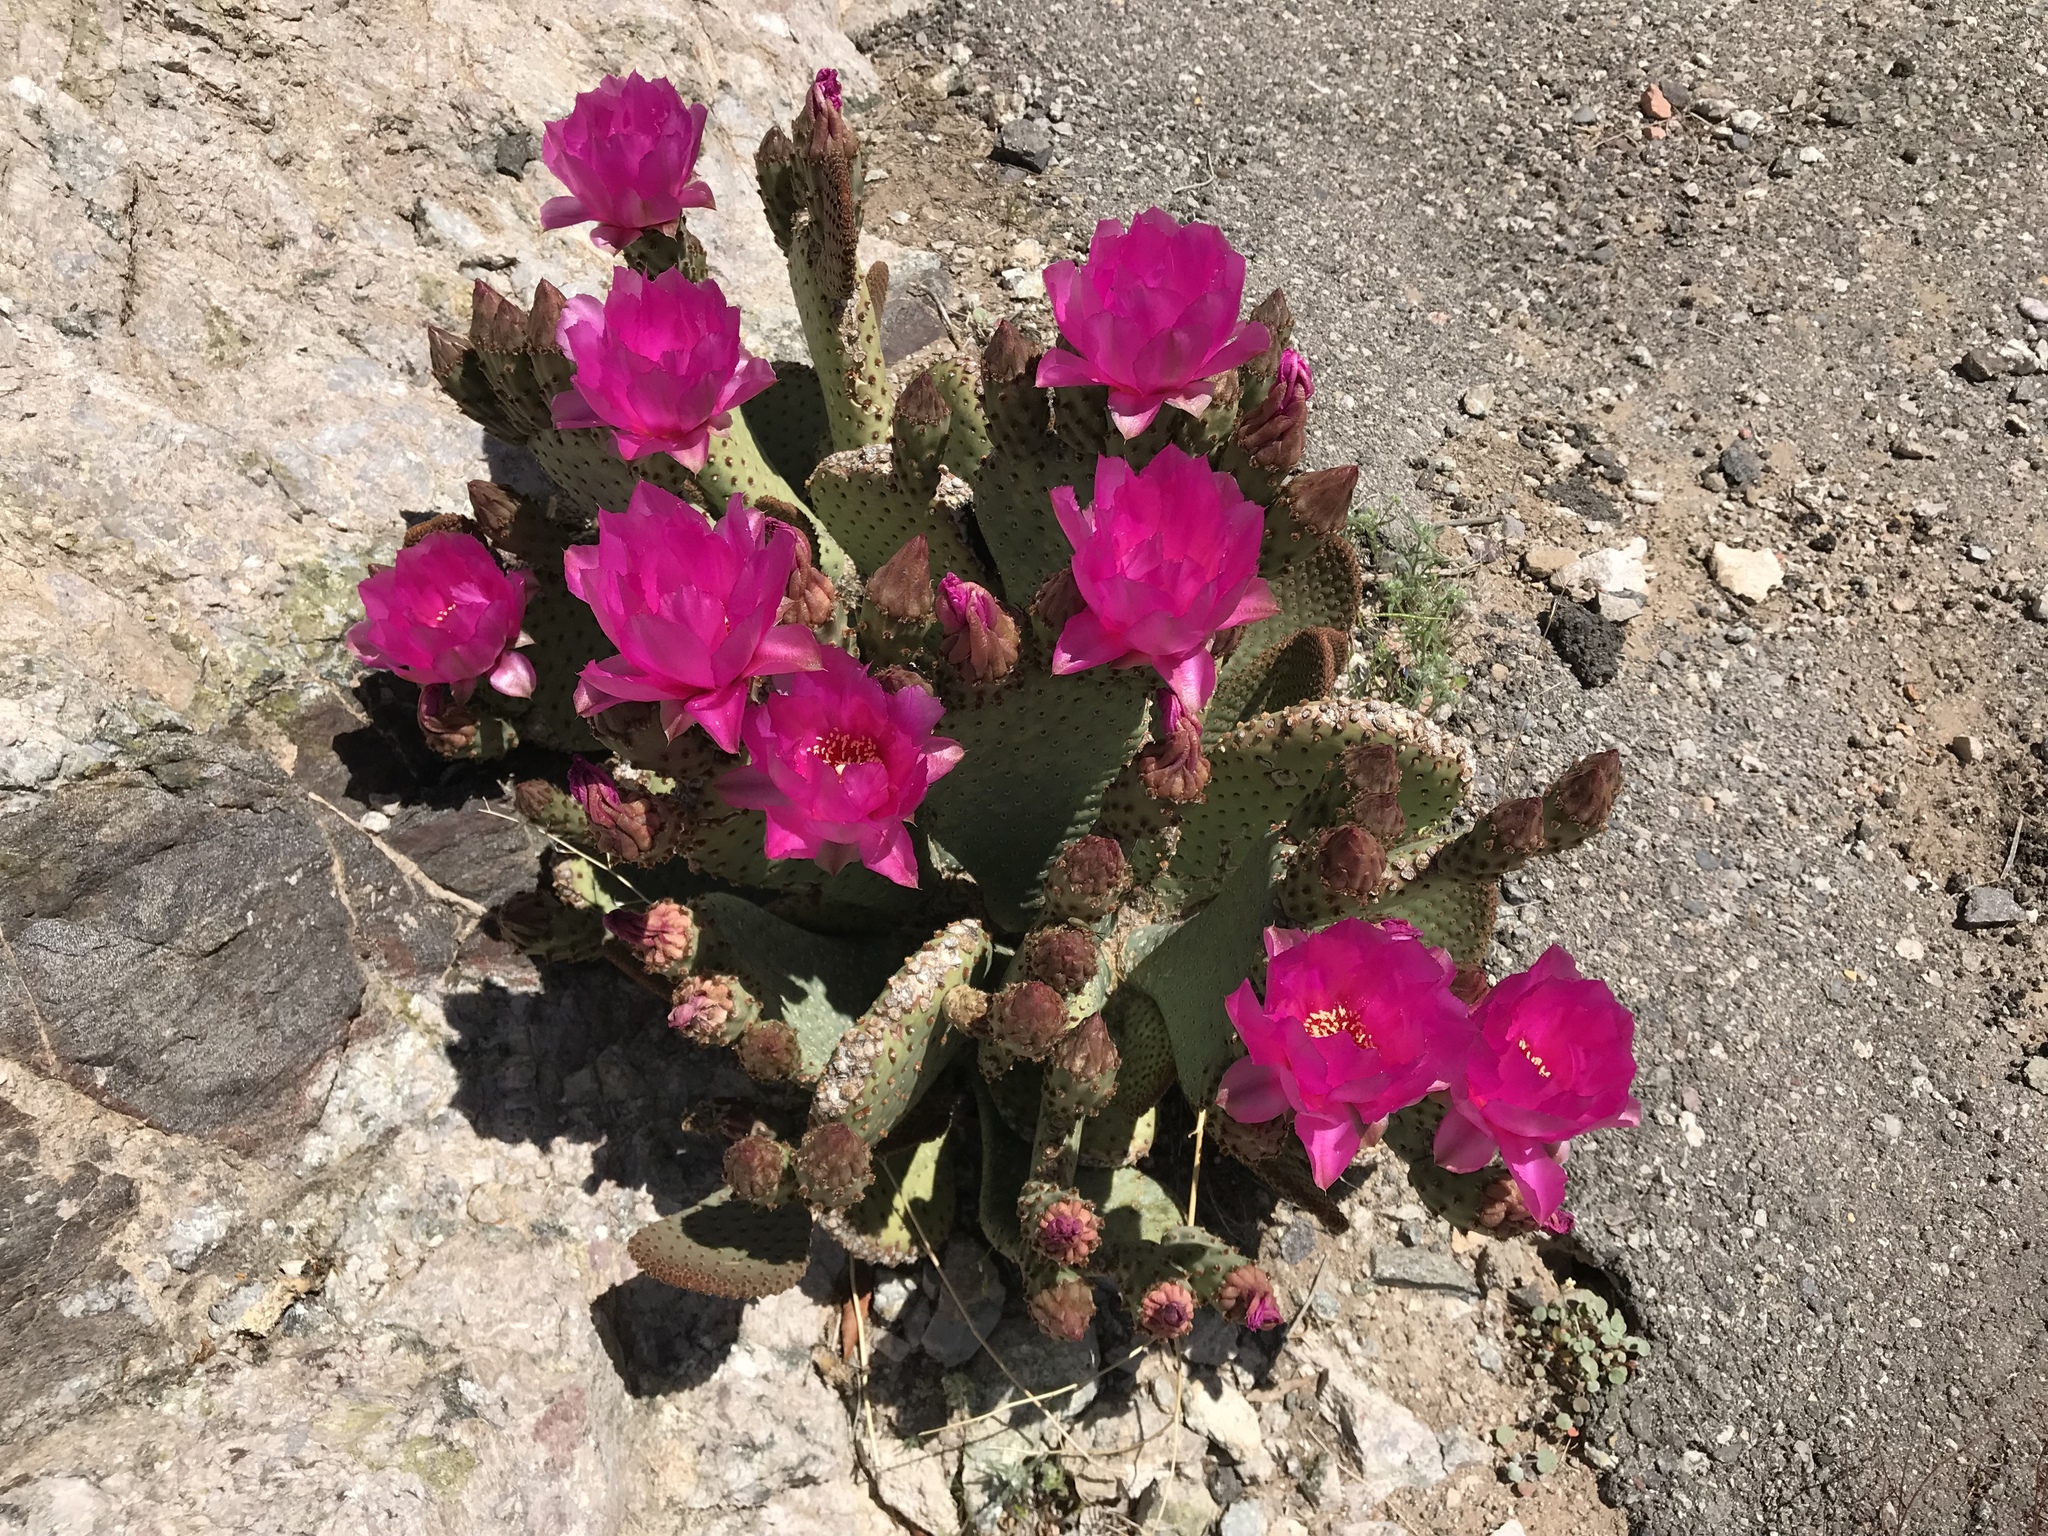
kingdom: Plantae
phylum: Tracheophyta
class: Magnoliopsida
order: Caryophyllales
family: Cactaceae
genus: Opuntia
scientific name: Opuntia basilaris
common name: Beavertail prickly-pear
